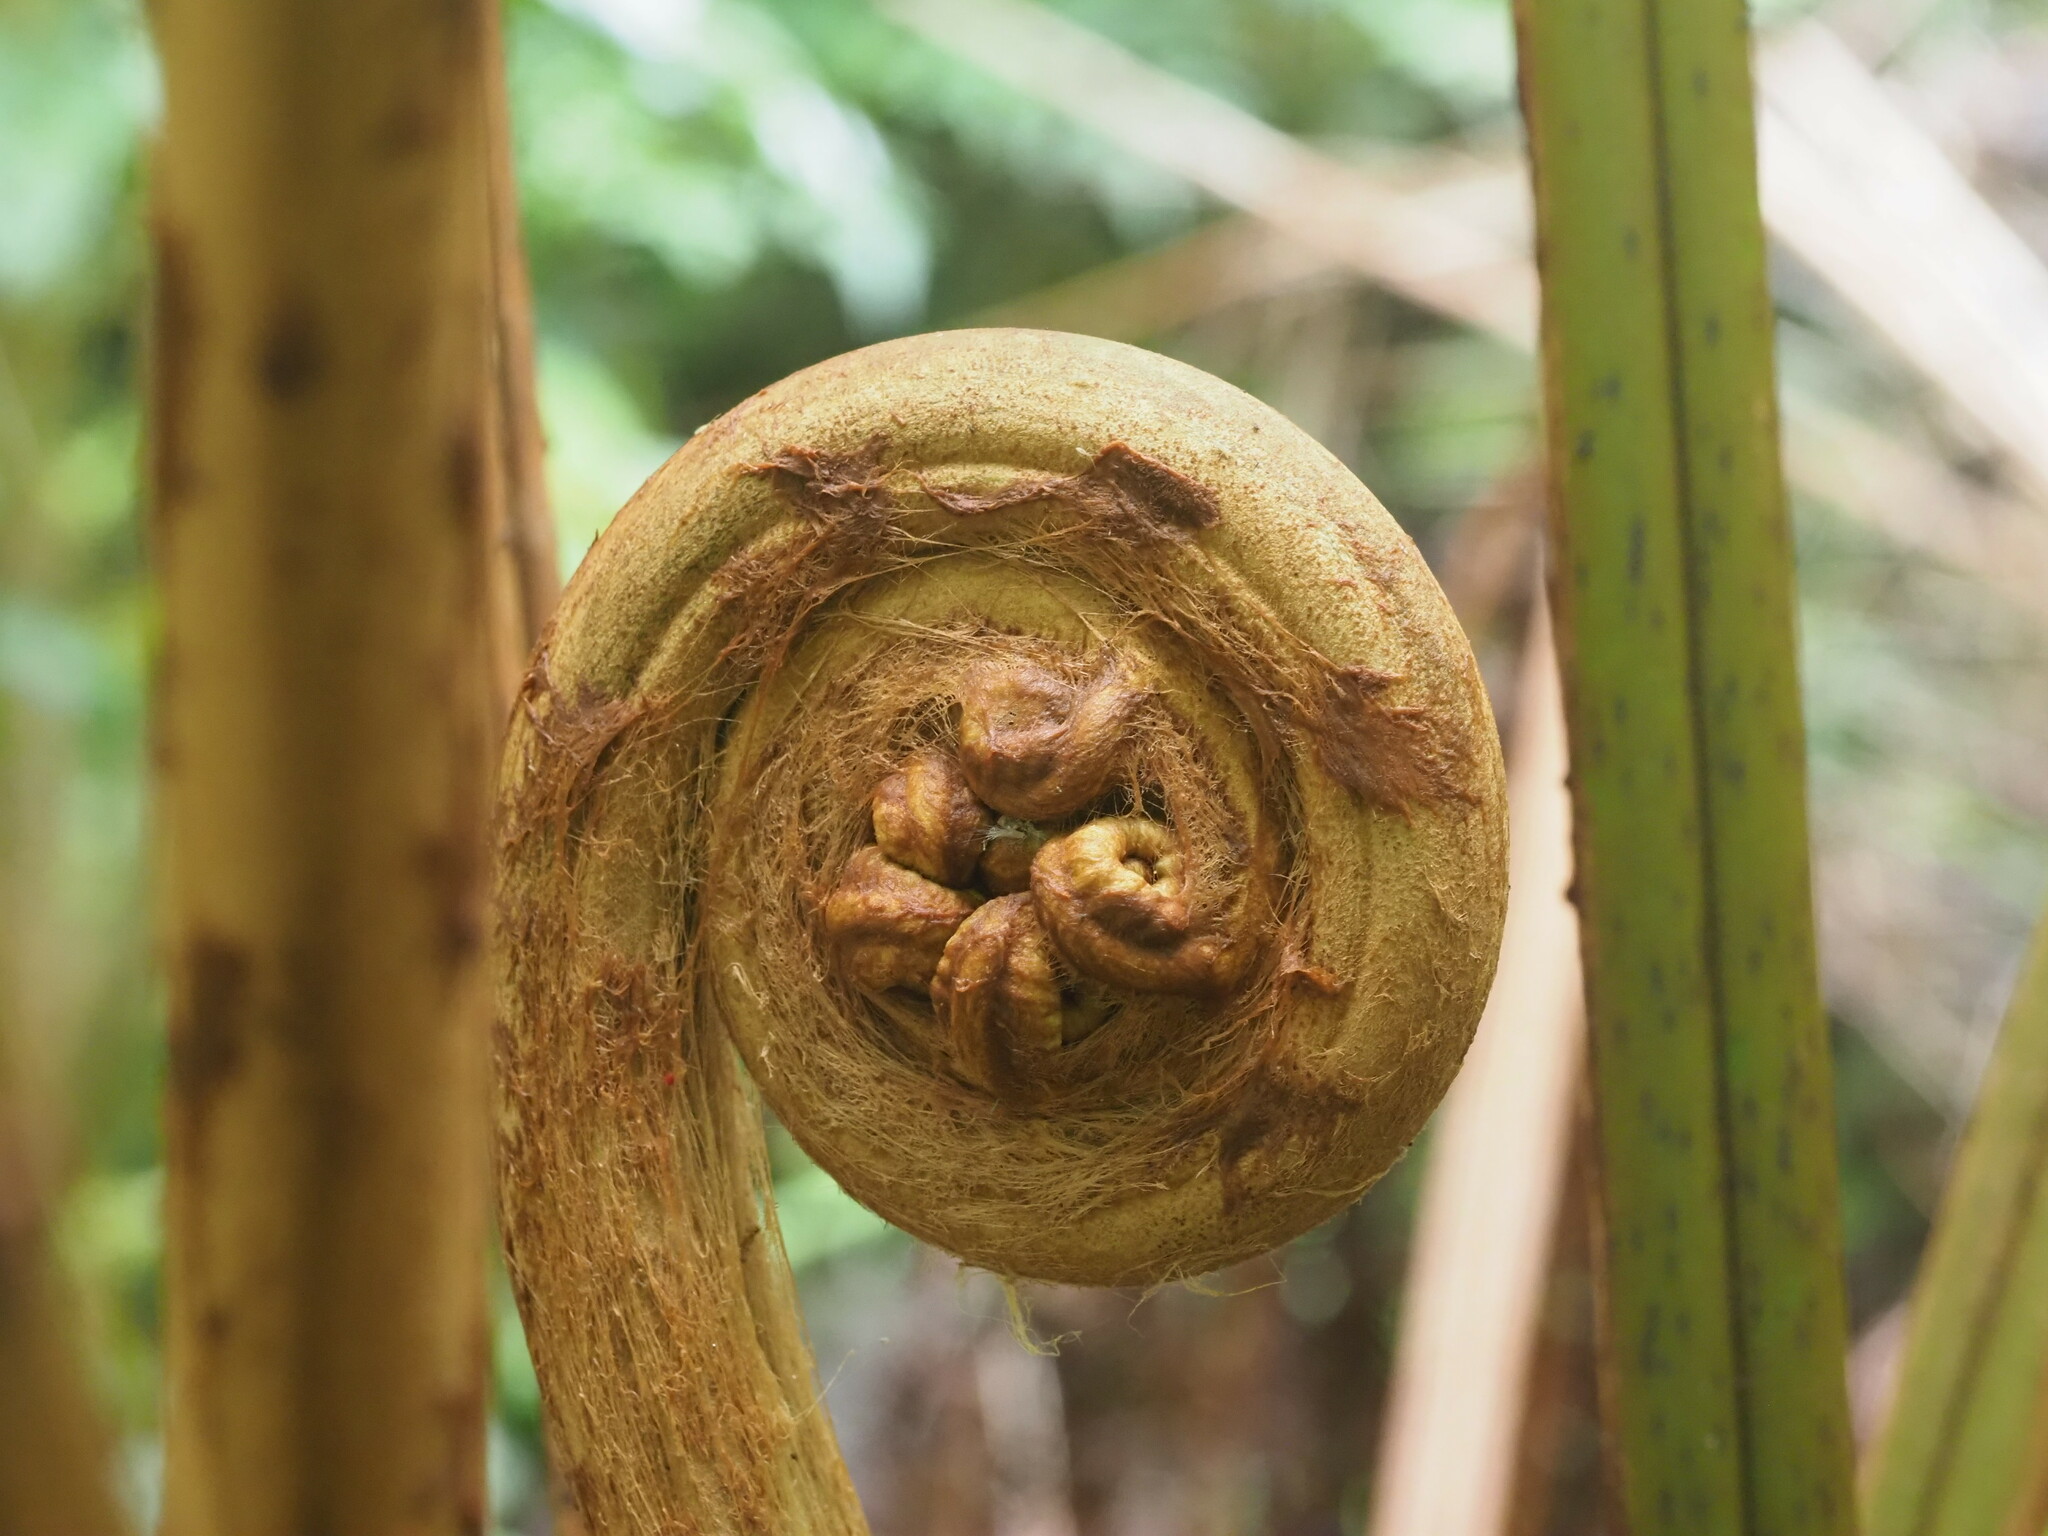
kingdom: Plantae
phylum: Tracheophyta
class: Polypodiopsida
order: Cyatheales
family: Cibotiaceae
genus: Cibotium
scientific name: Cibotium chamissoi
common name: Hawaiian tree fern
